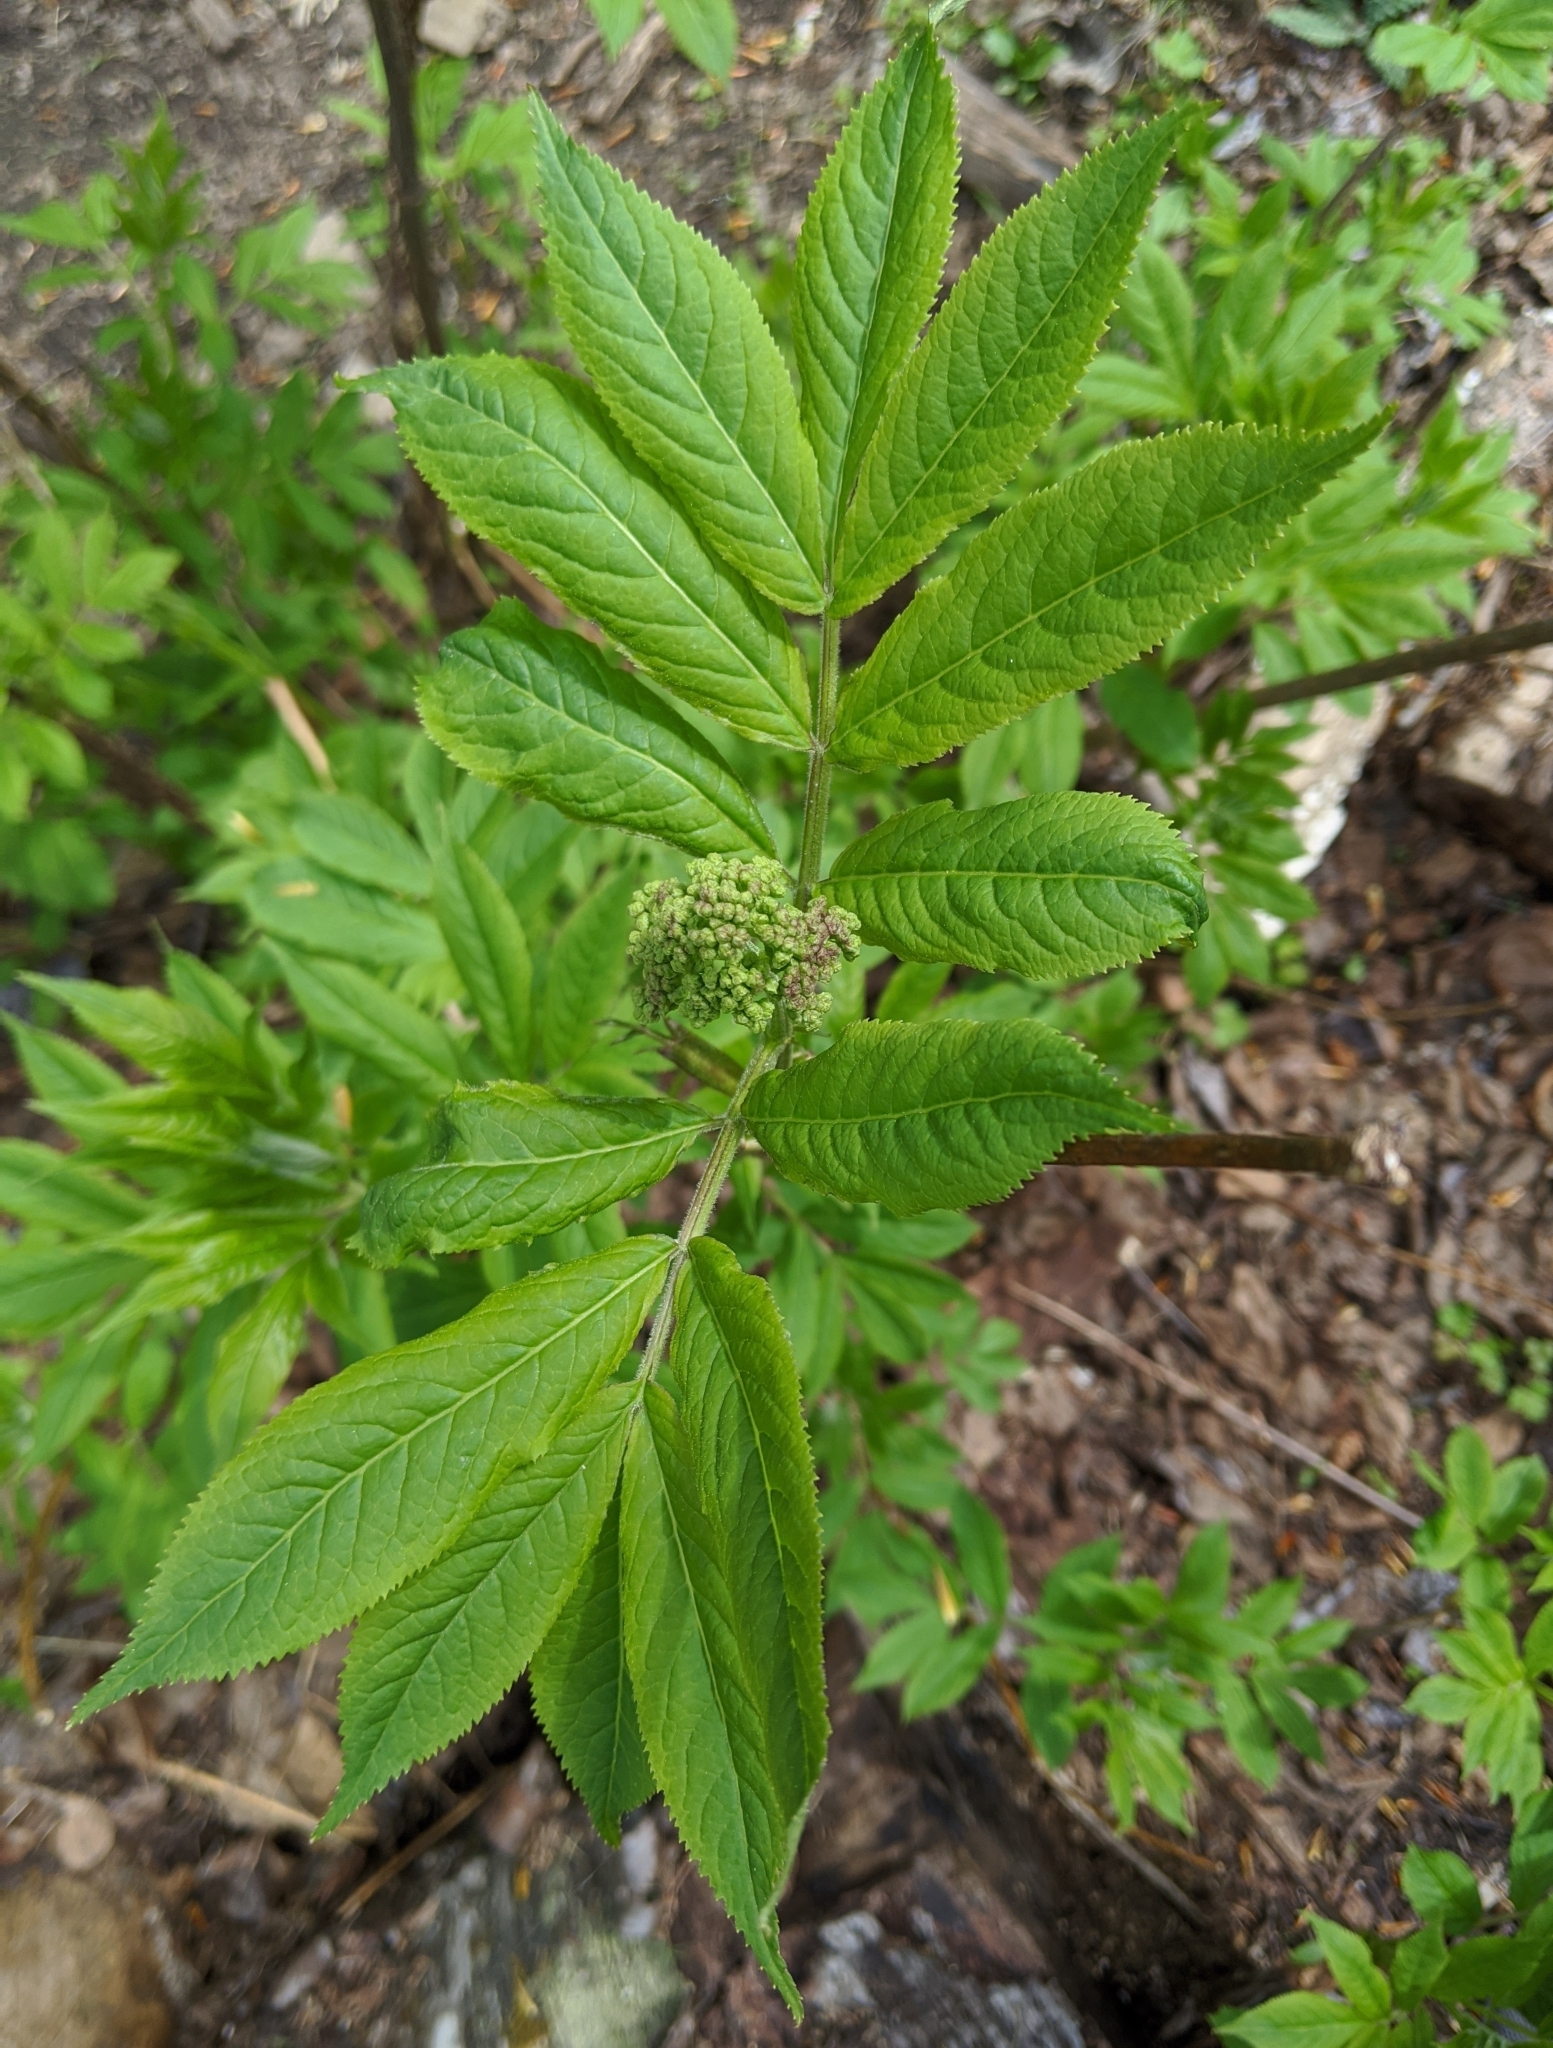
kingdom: Plantae
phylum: Tracheophyta
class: Magnoliopsida
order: Dipsacales
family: Viburnaceae
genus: Sambucus
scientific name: Sambucus racemosa
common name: Red-berried elder
